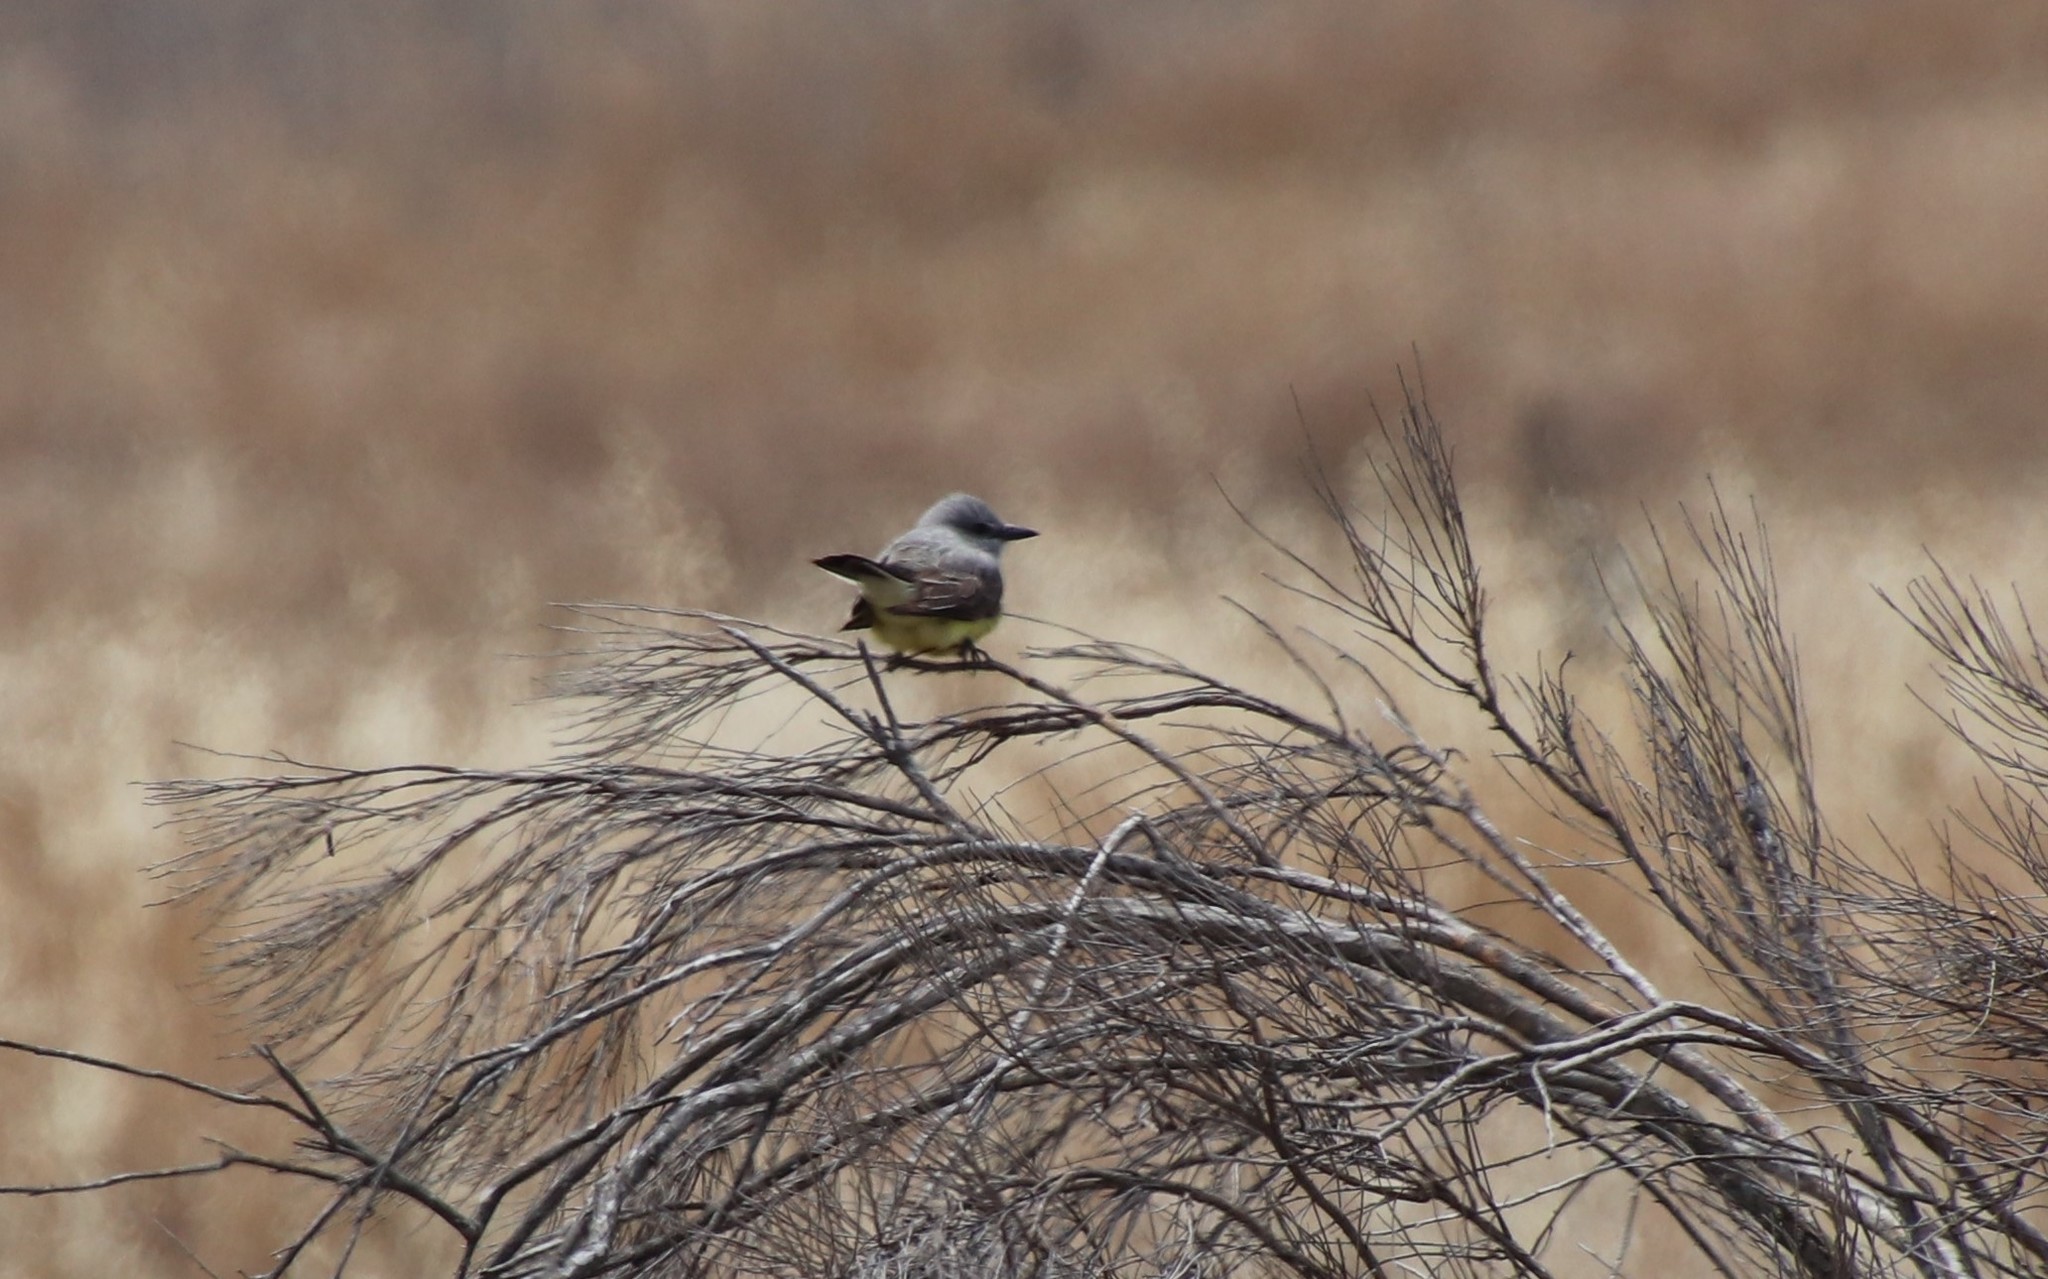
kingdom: Animalia
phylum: Chordata
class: Aves
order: Passeriformes
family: Tyrannidae
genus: Tyrannus
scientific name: Tyrannus verticalis
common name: Western kingbird
